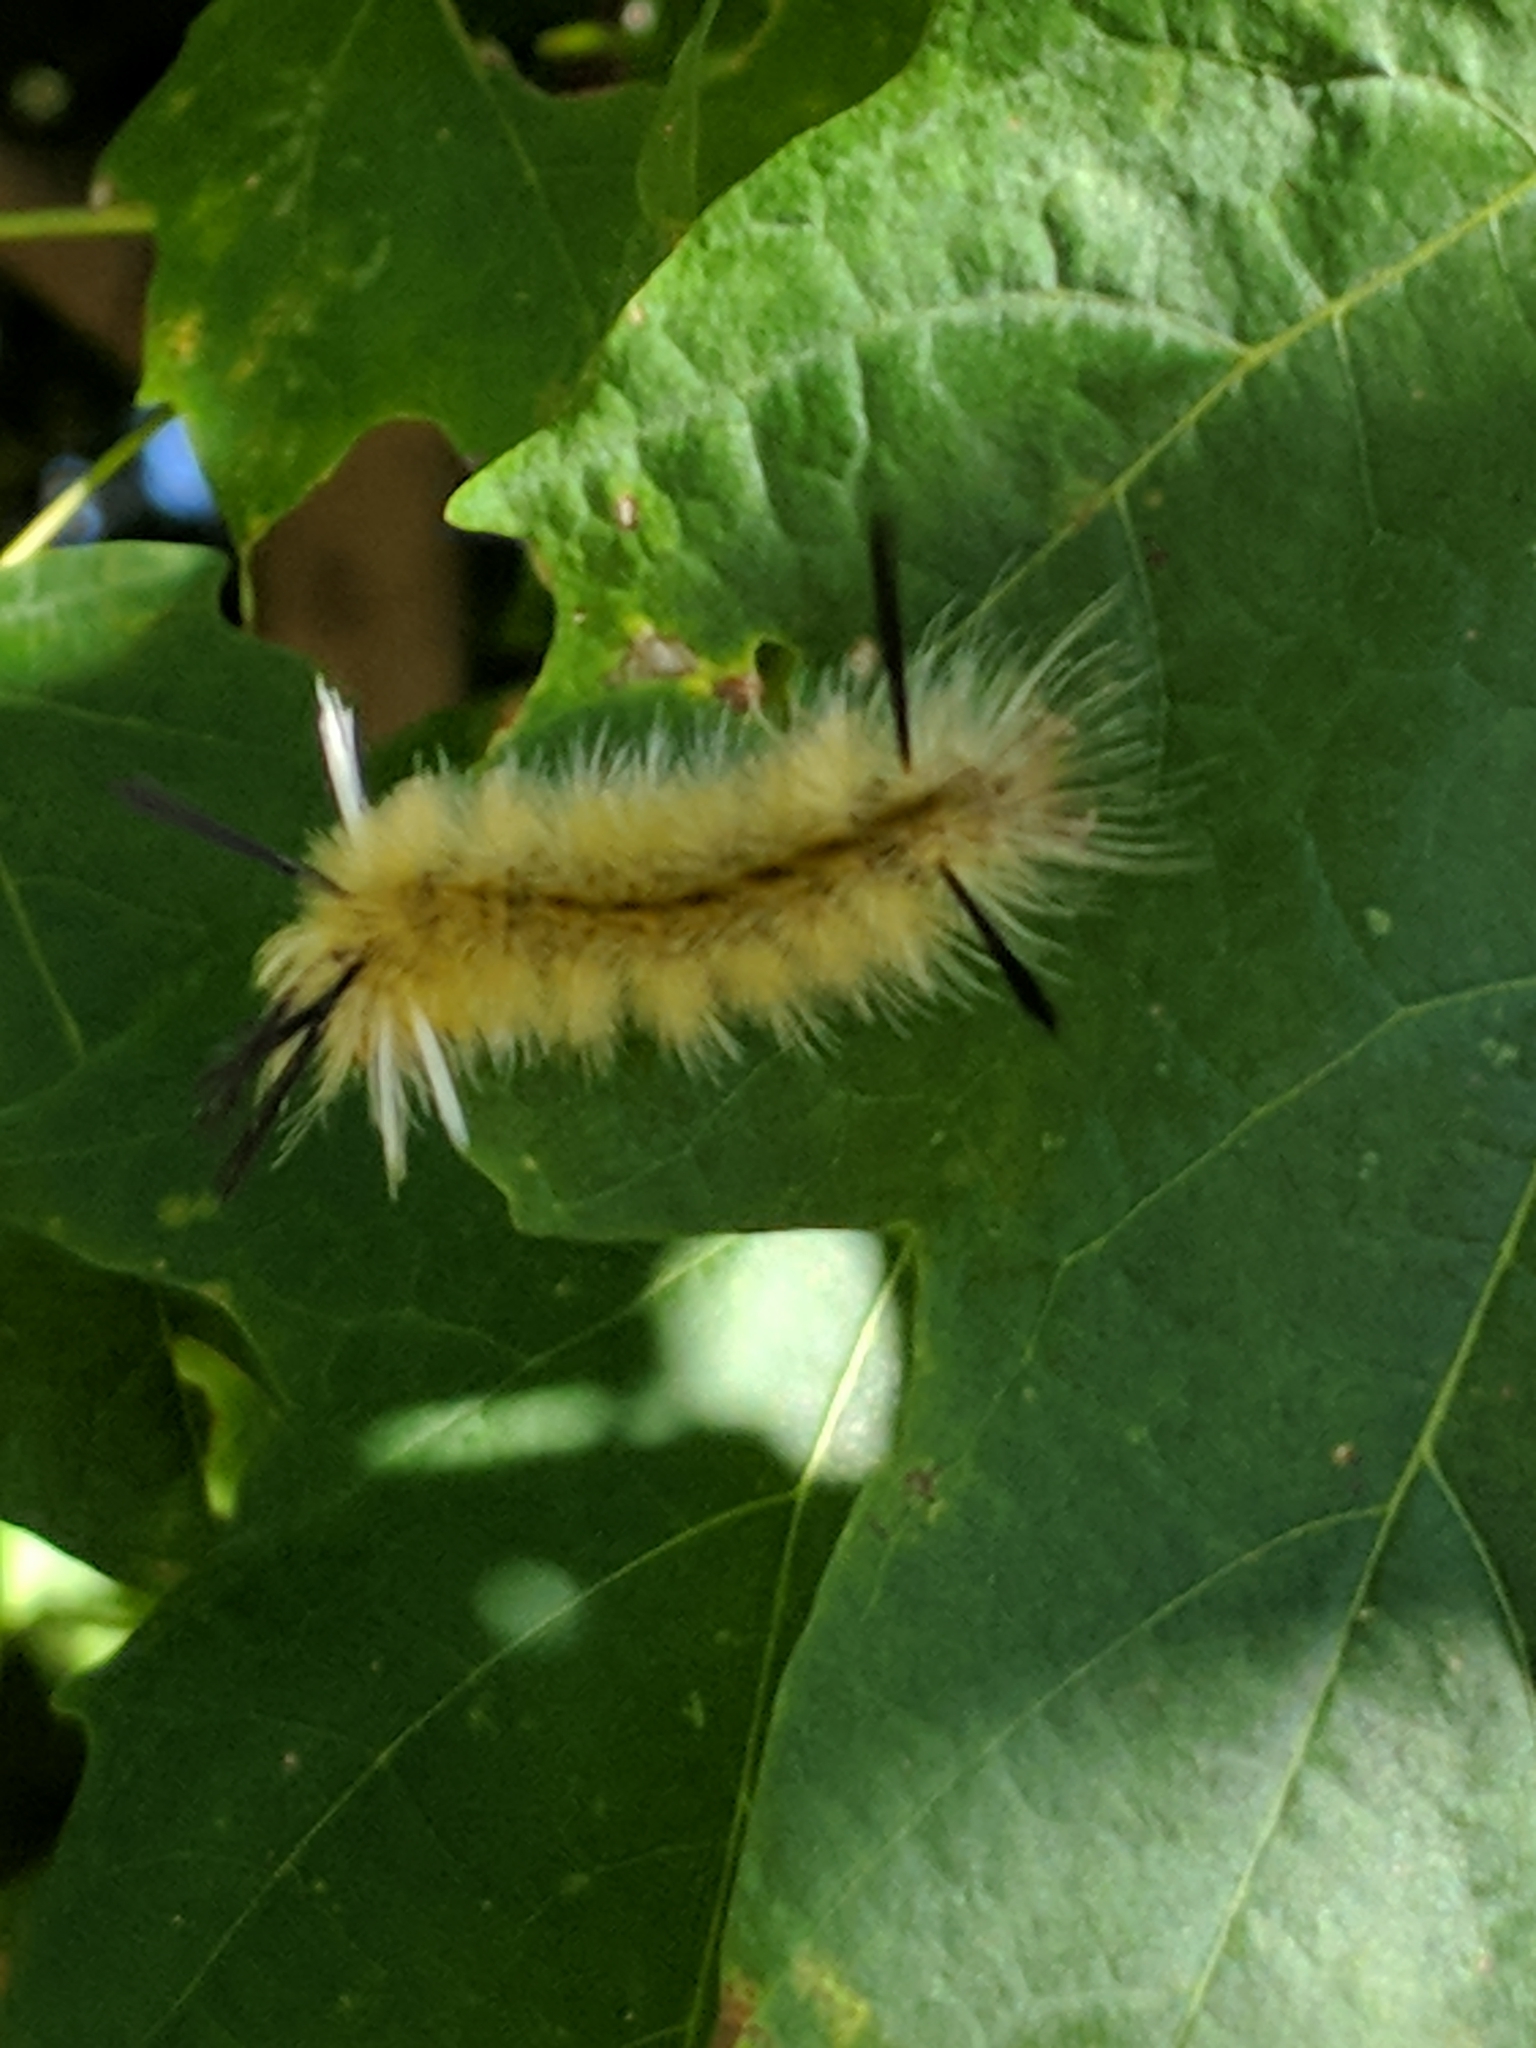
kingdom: Animalia
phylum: Arthropoda
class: Insecta
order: Lepidoptera
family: Erebidae
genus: Halysidota
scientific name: Halysidota tessellaris
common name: Banded tussock moth
